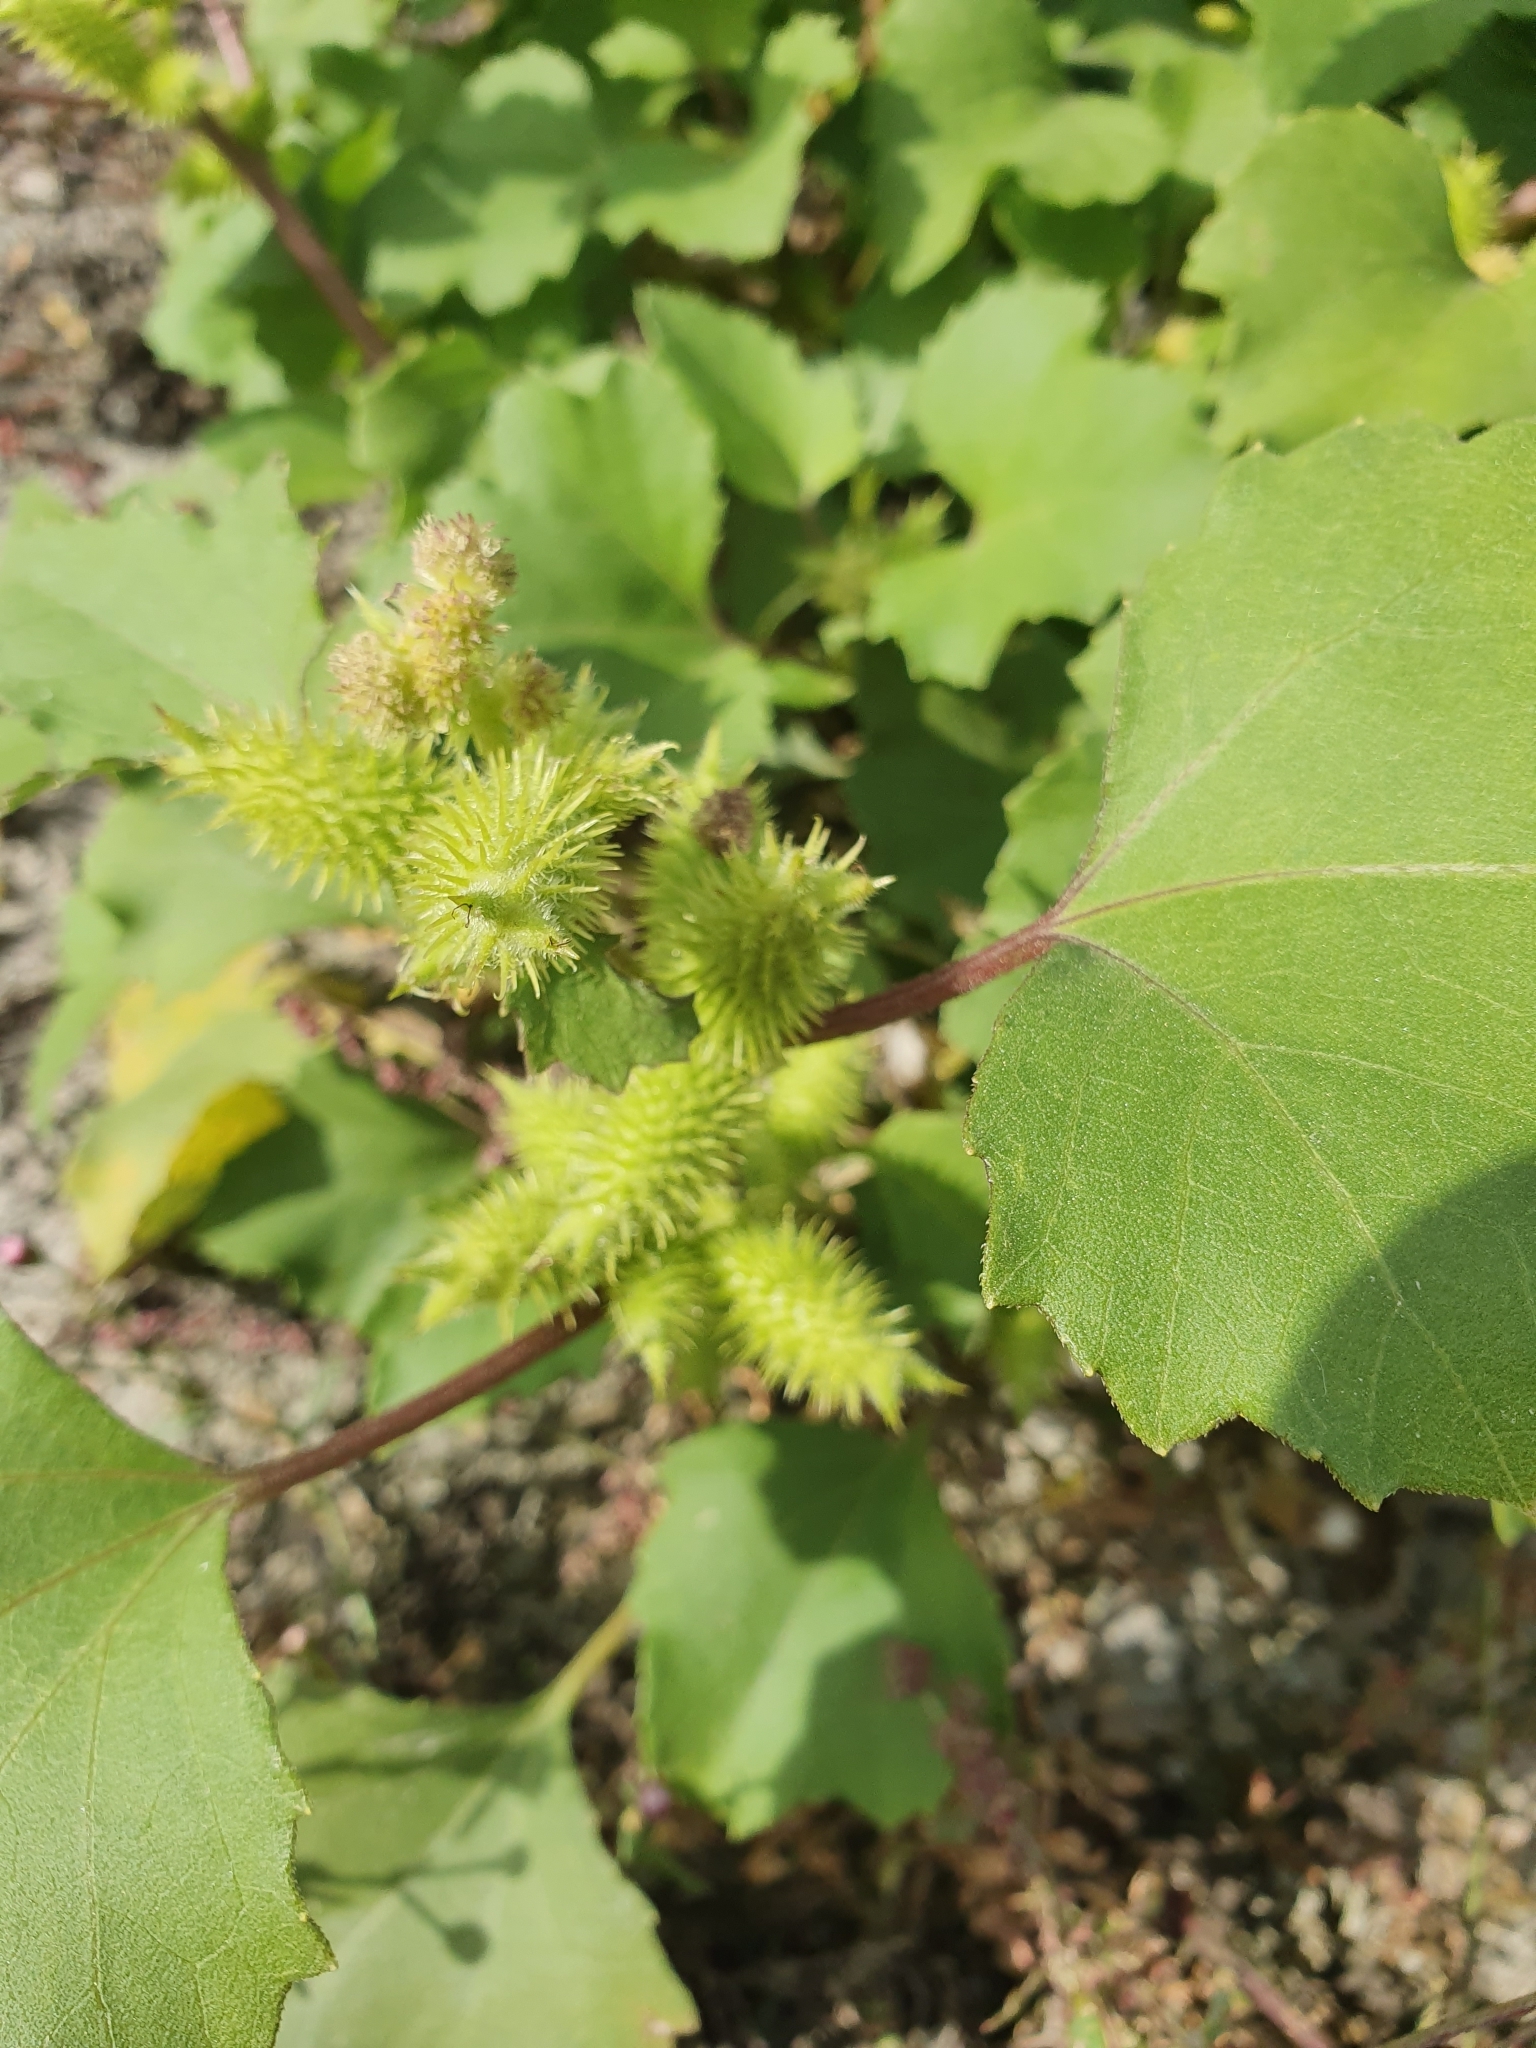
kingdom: Plantae
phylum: Tracheophyta
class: Magnoliopsida
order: Asterales
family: Asteraceae
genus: Xanthium
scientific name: Xanthium strumarium
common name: Rough cocklebur
